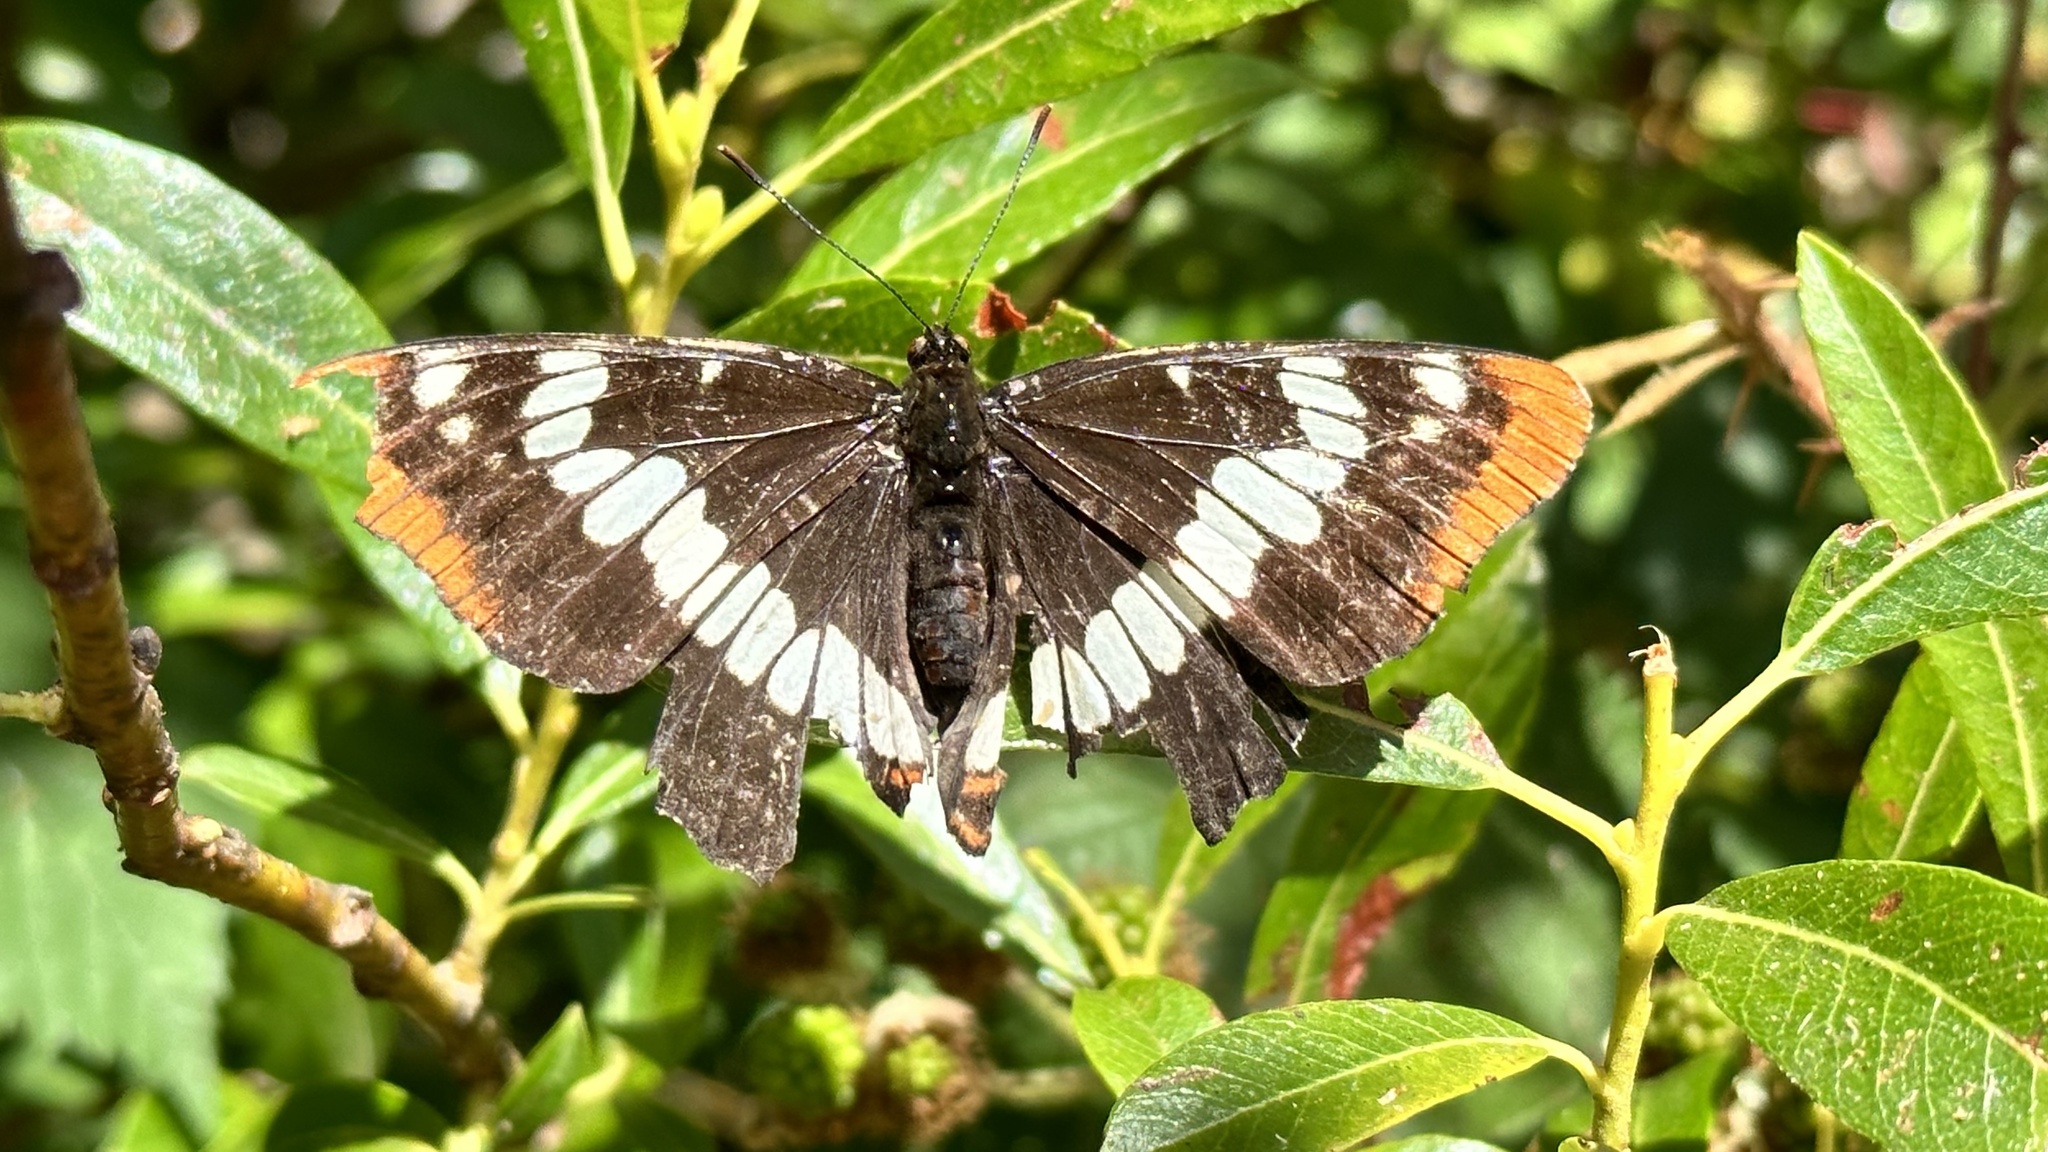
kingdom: Animalia
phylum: Arthropoda
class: Insecta
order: Lepidoptera
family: Nymphalidae
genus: Limenitis
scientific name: Limenitis lorquini
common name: Lorquin's admiral
